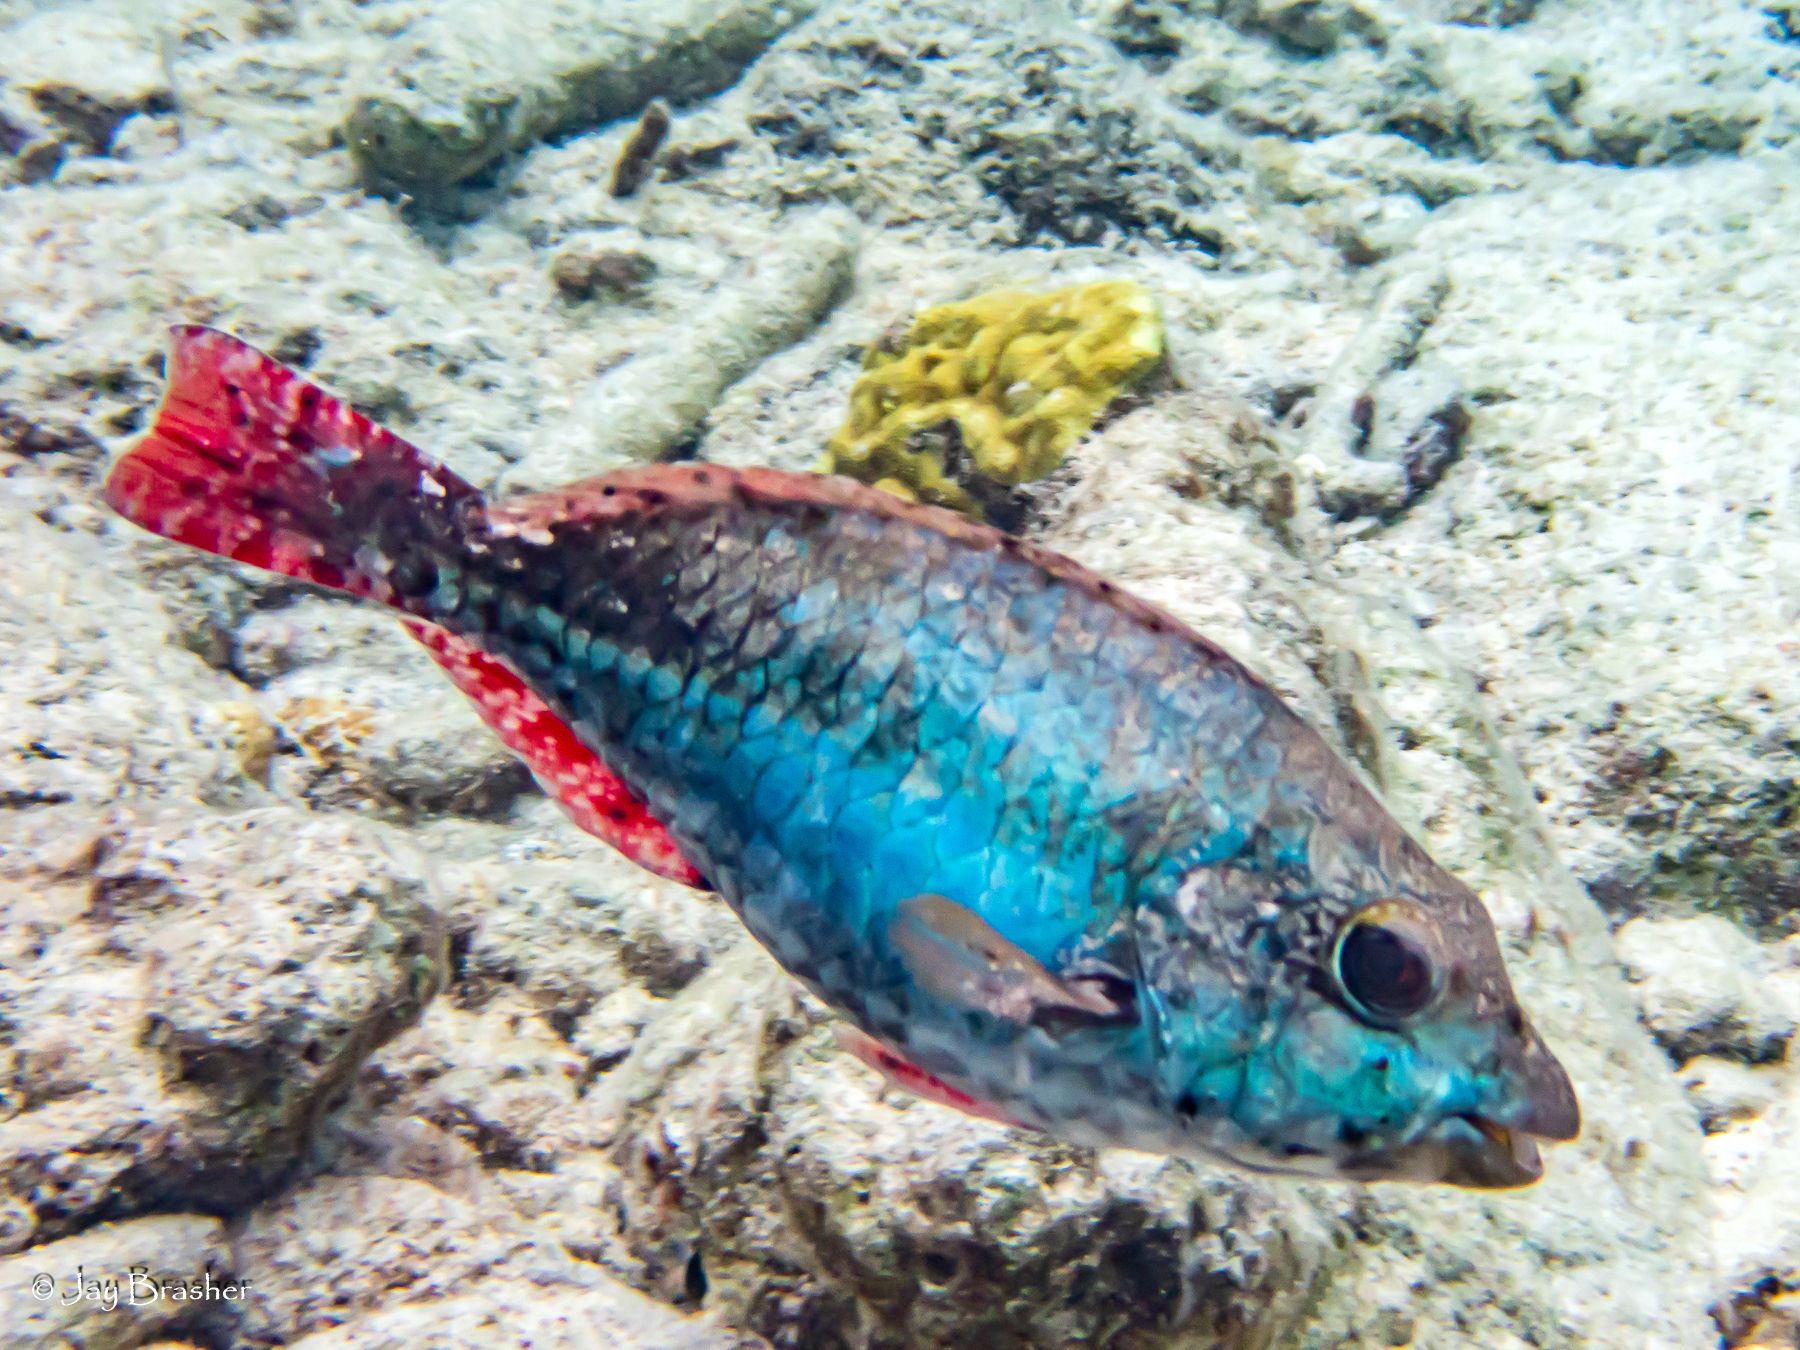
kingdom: Animalia
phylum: Chordata
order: Perciformes
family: Scaridae
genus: Sparisoma
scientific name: Sparisoma aurofrenatum
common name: Redband parrotfish
